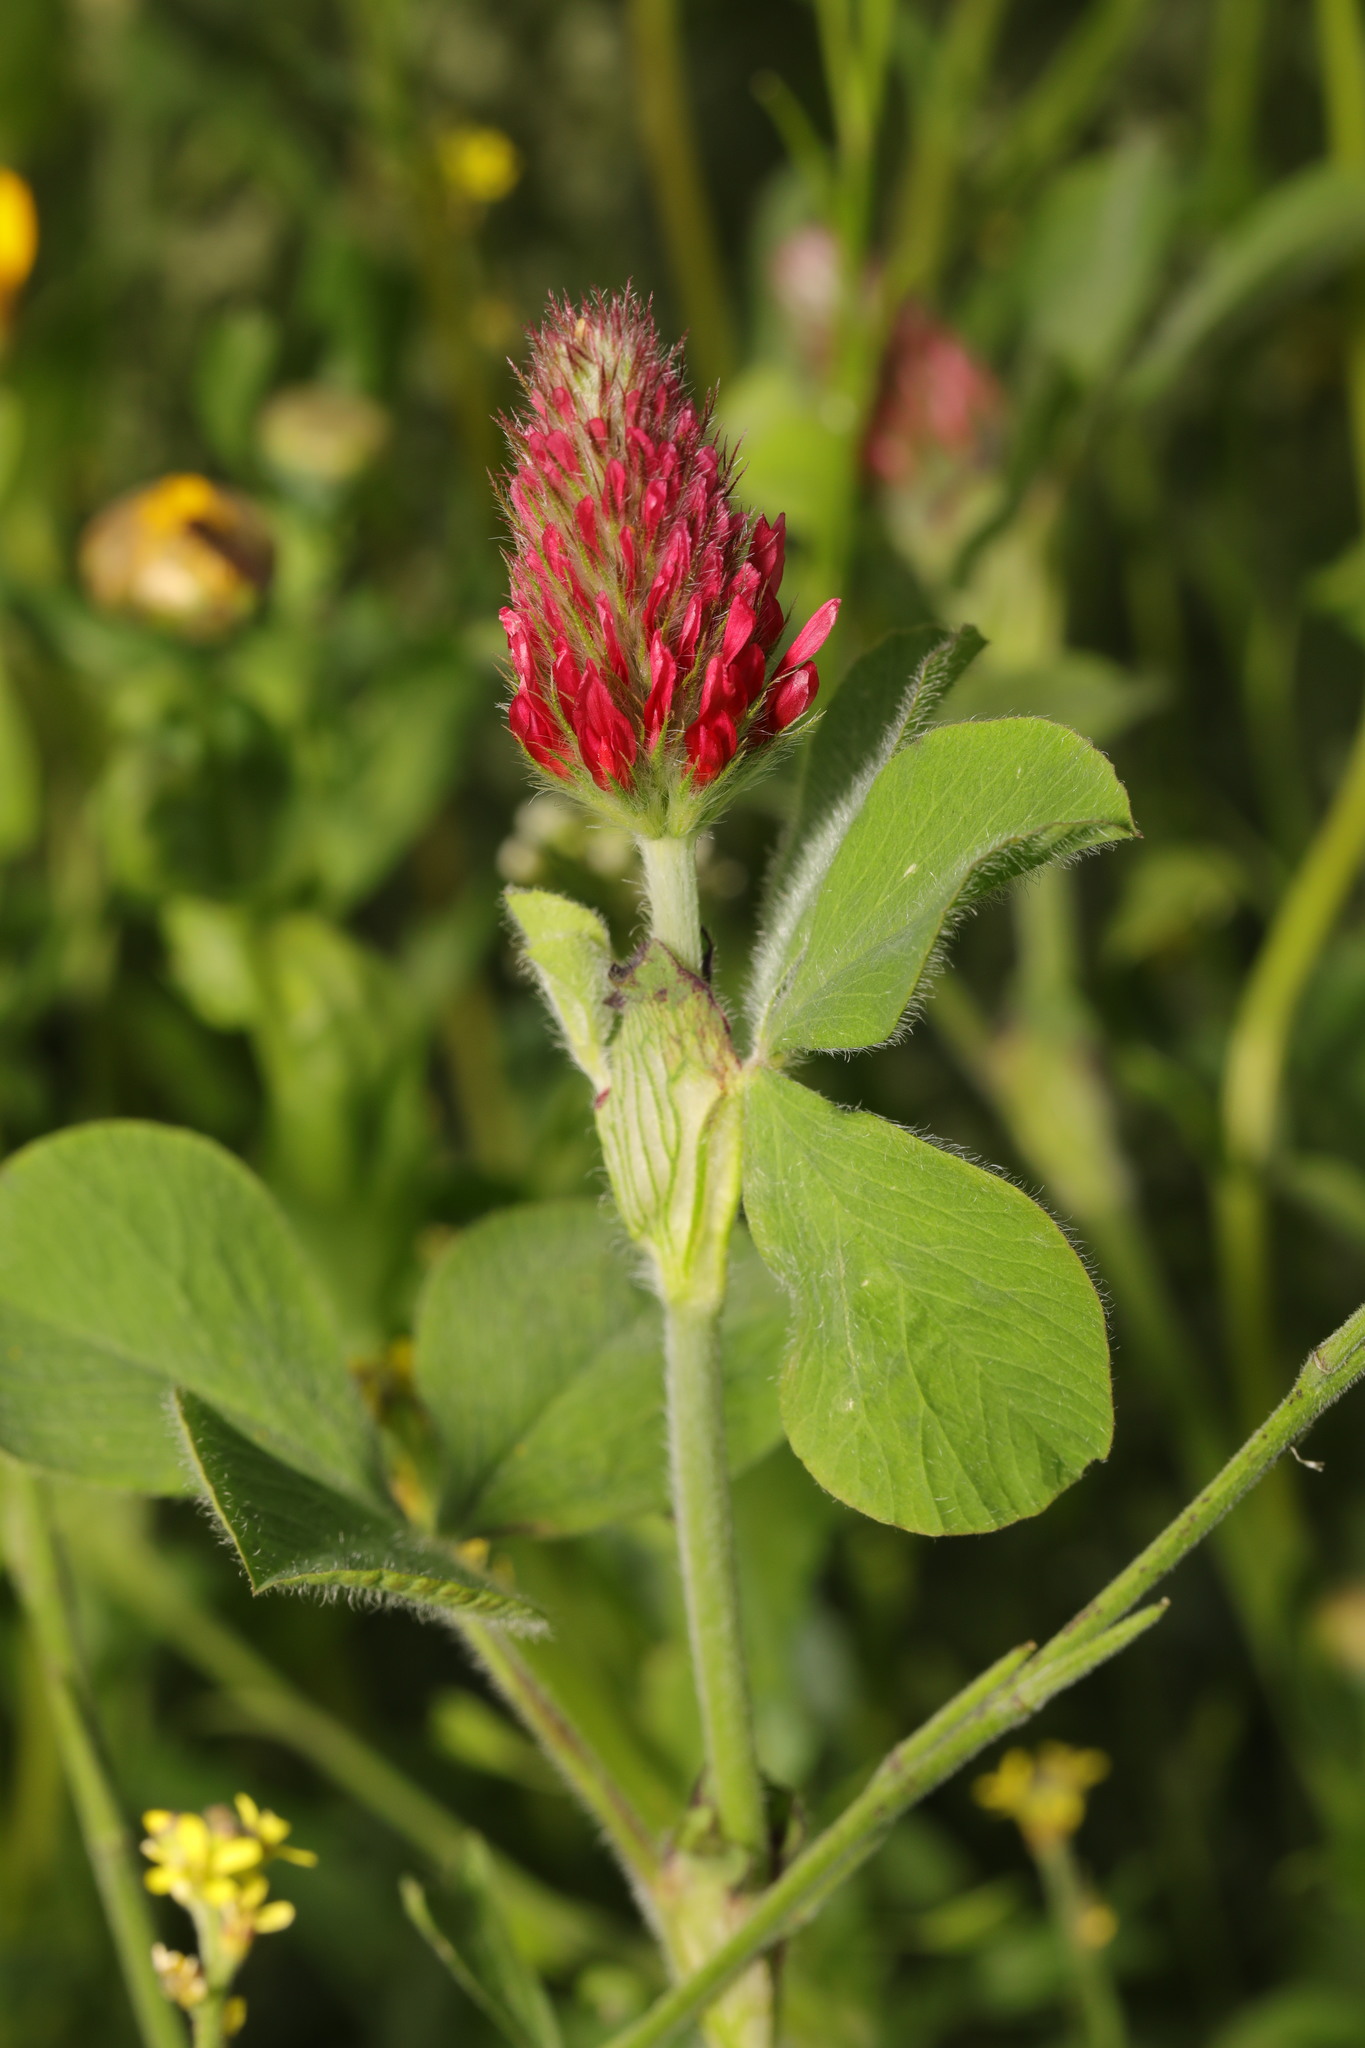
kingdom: Plantae
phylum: Tracheophyta
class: Magnoliopsida
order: Fabales
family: Fabaceae
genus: Trifolium
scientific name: Trifolium incarnatum
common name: Crimson clover
